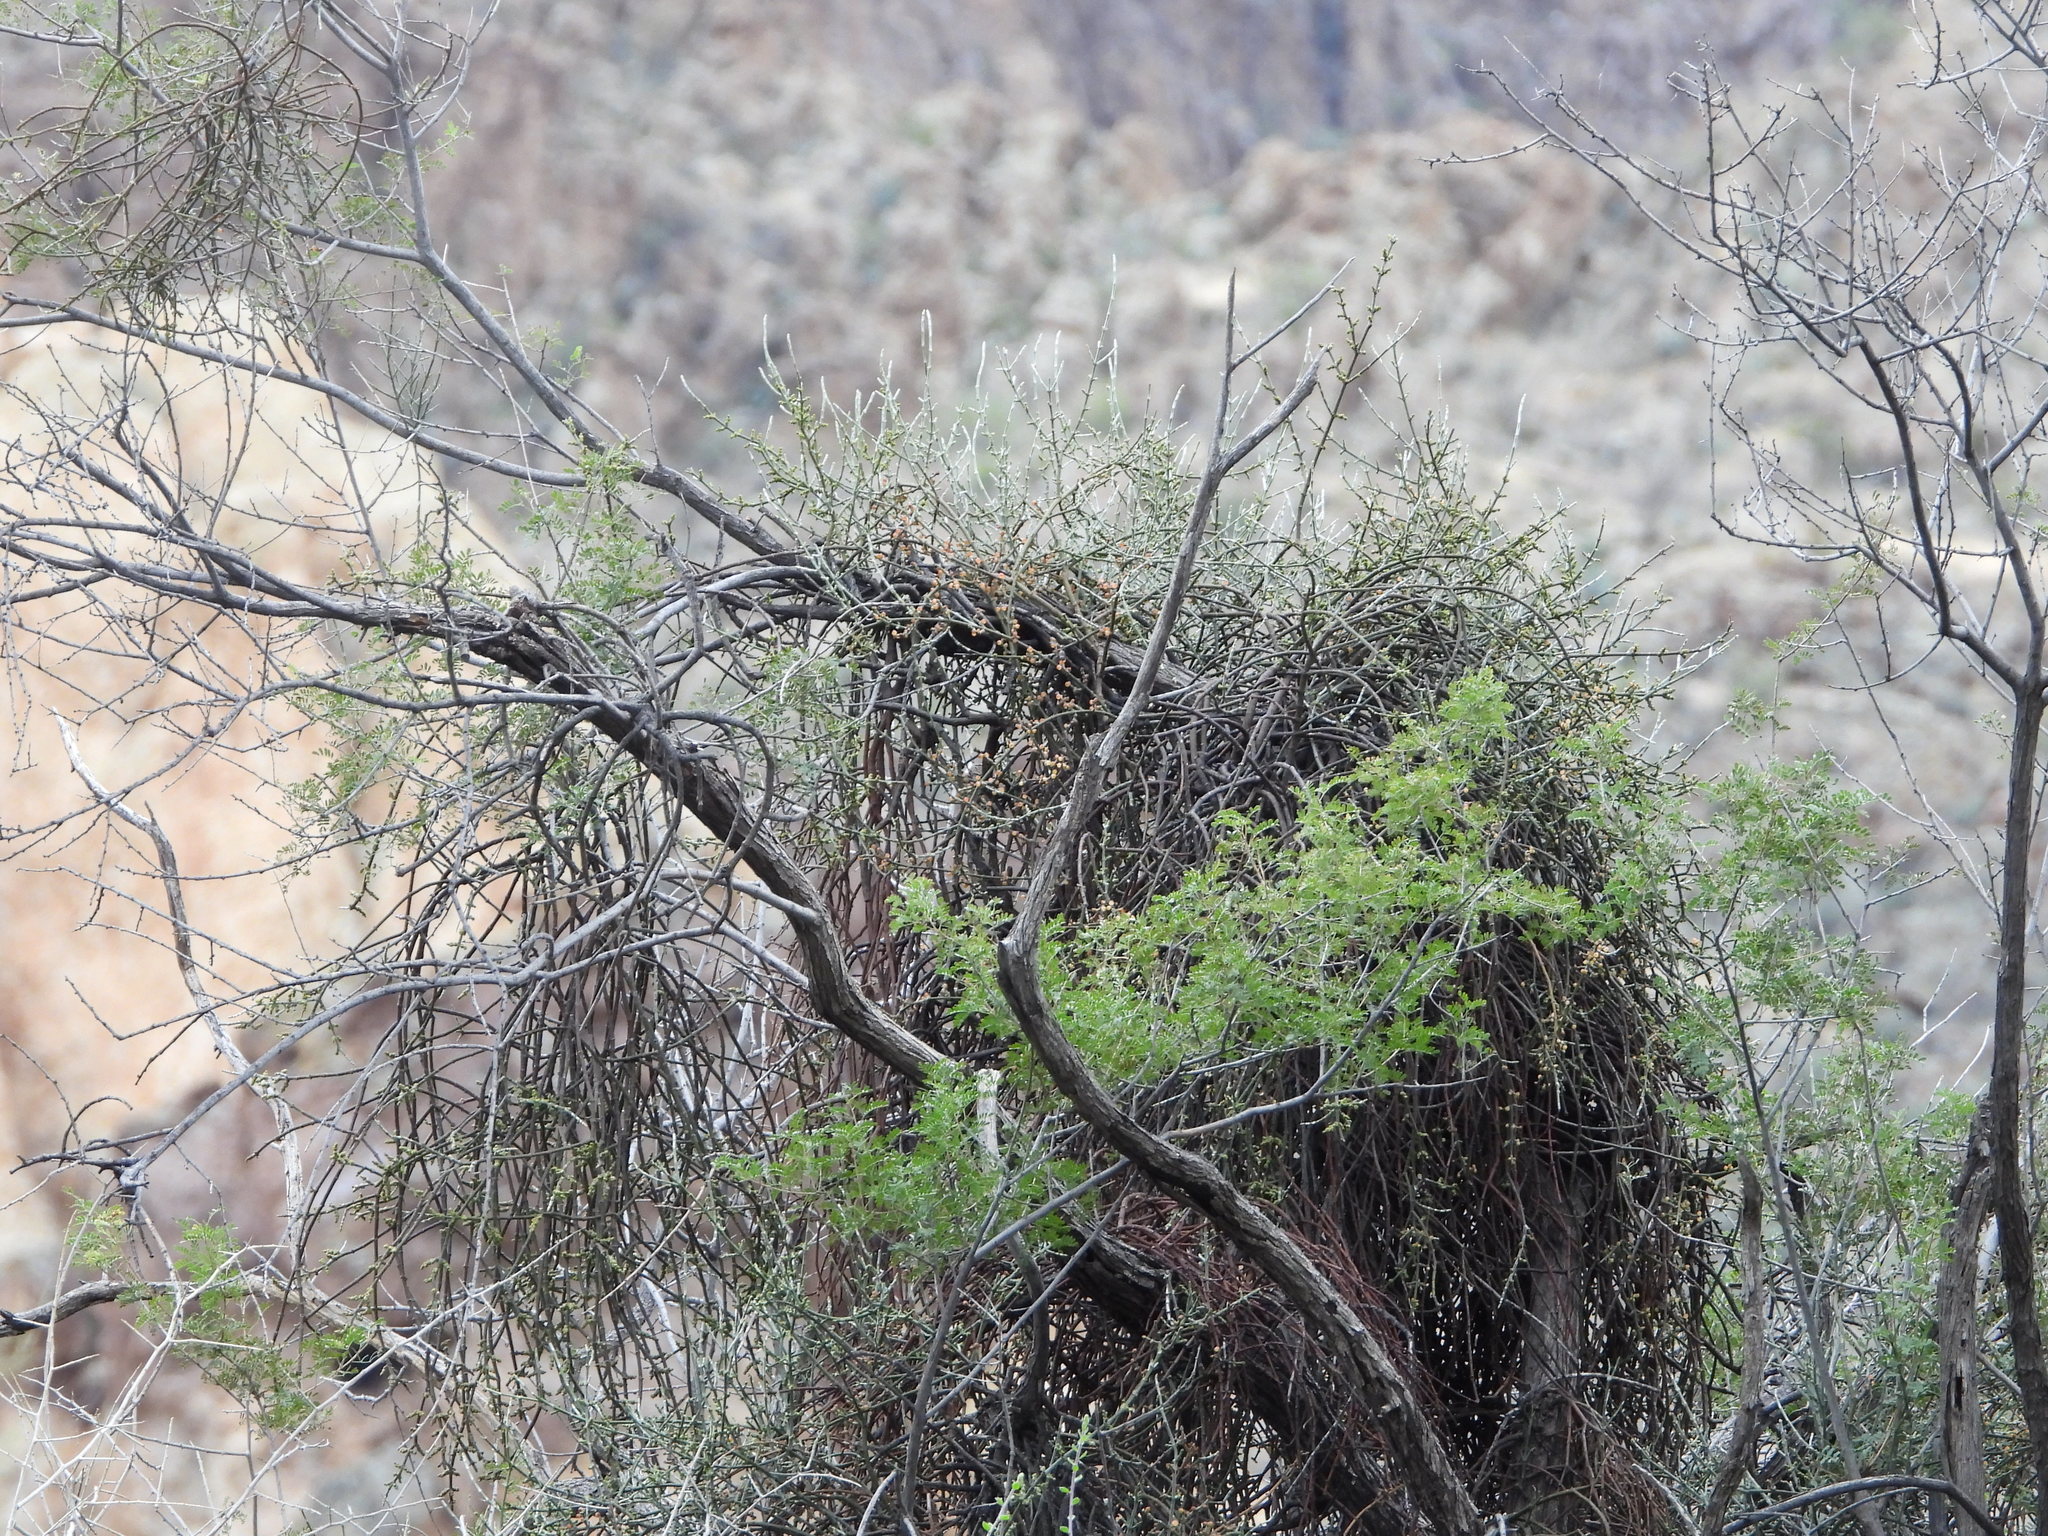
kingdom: Plantae
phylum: Tracheophyta
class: Magnoliopsida
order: Santalales
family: Viscaceae
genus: Phoradendron
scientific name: Phoradendron californicum
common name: Acacia mistletoe
